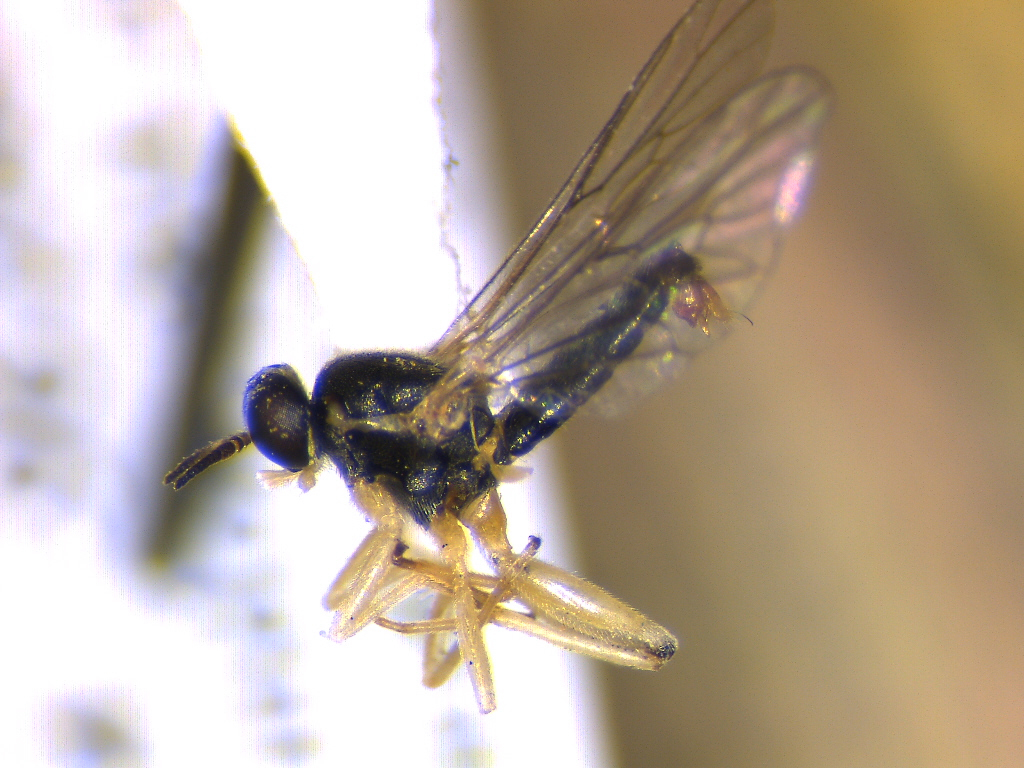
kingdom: Animalia
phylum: Arthropoda
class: Insecta
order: Diptera
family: Xylomyidae
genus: Solva
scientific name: Solva pallipes
